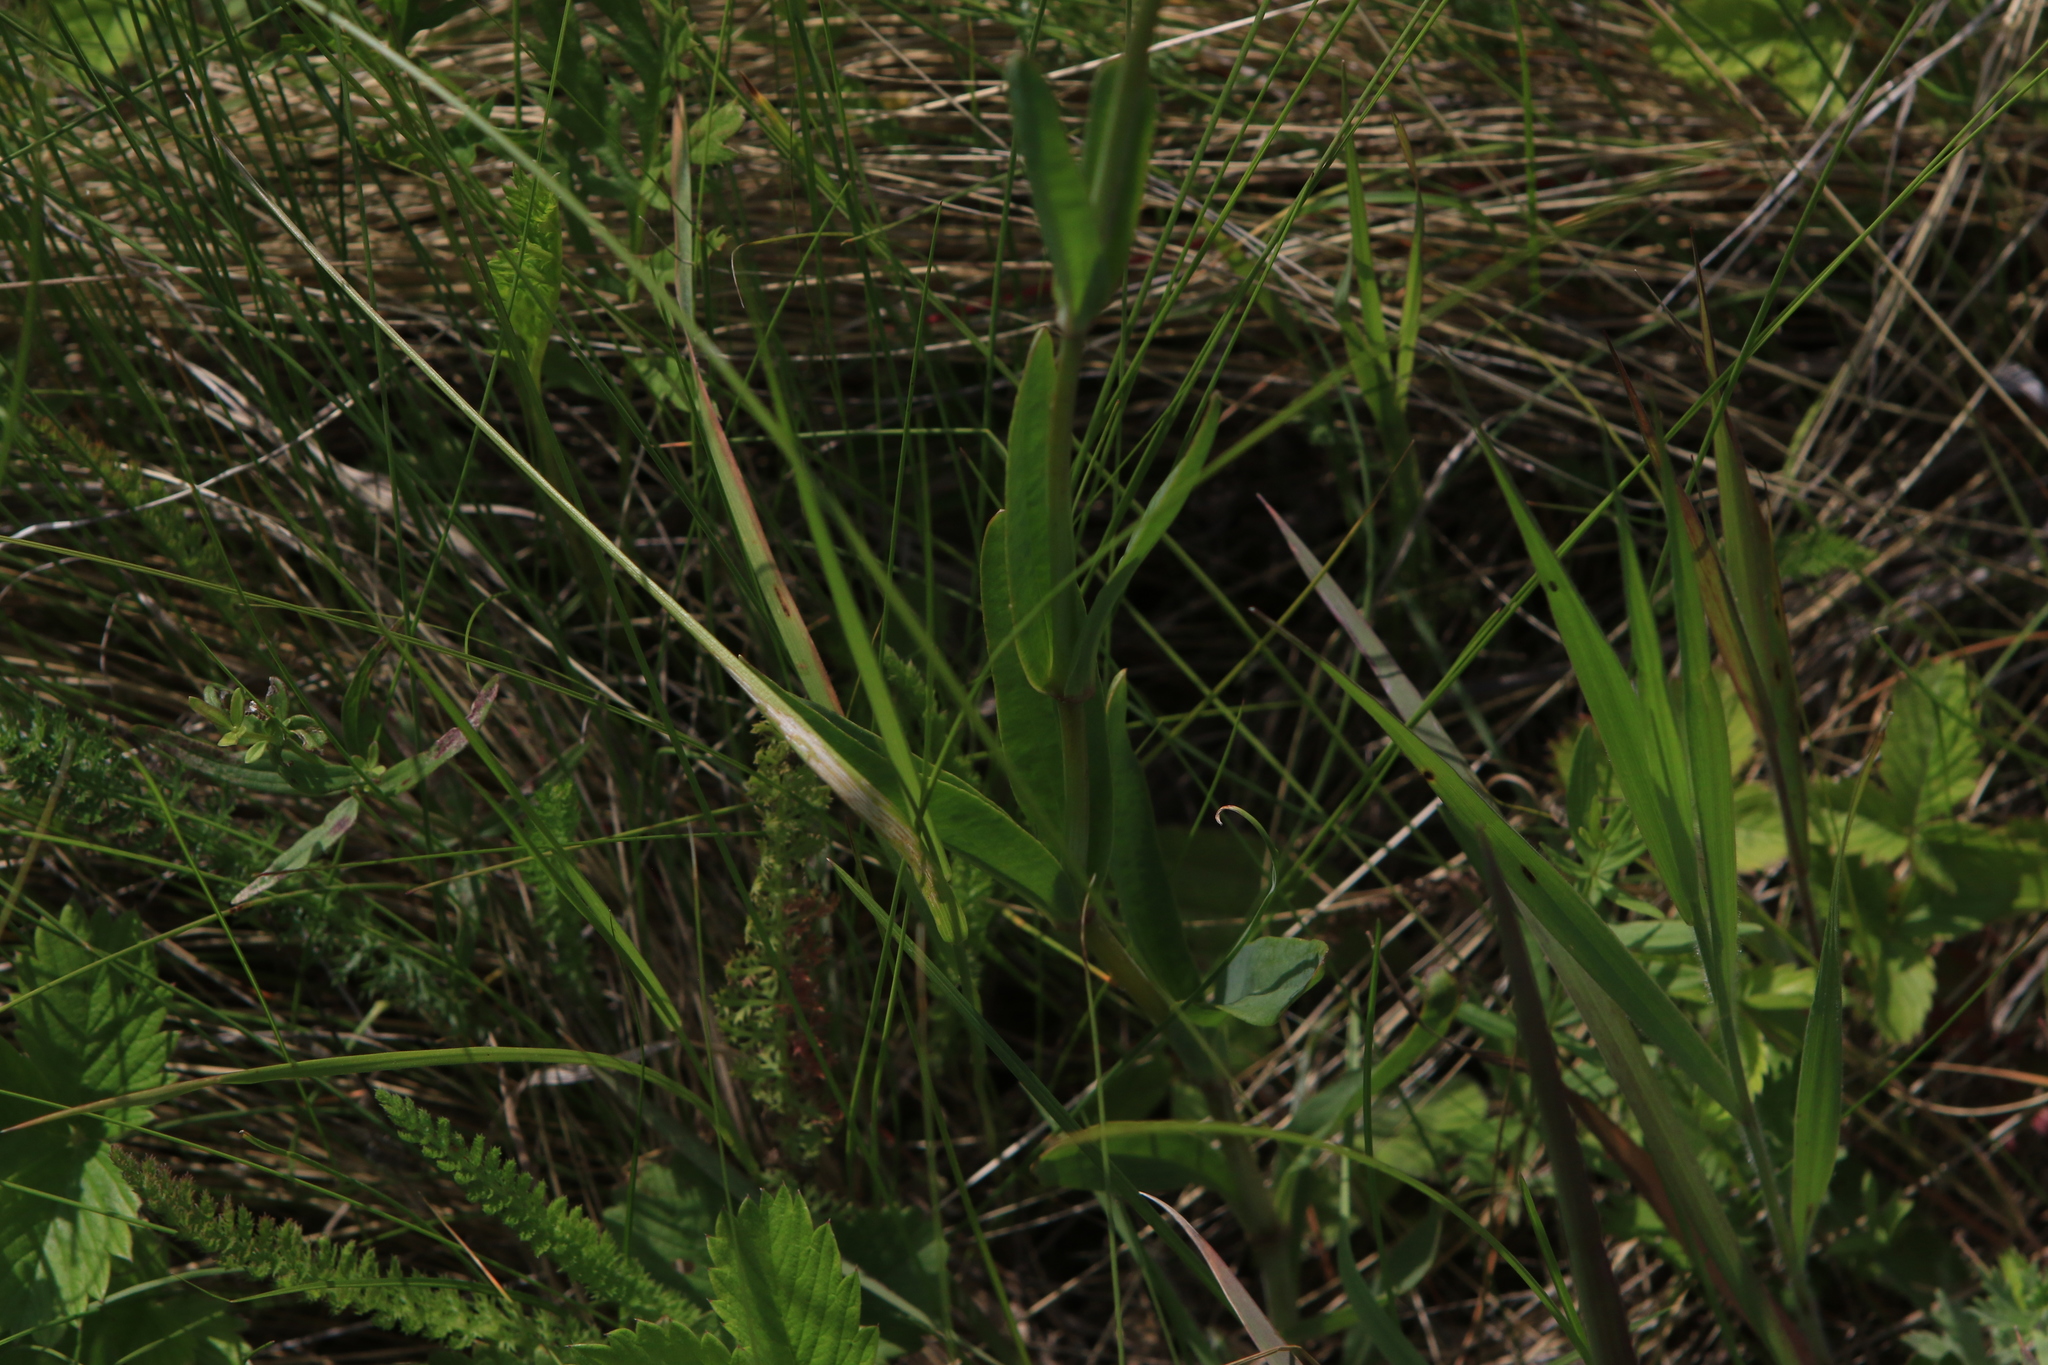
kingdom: Plantae
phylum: Tracheophyta
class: Magnoliopsida
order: Caryophyllales
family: Caryophyllaceae
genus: Gypsophila
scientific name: Gypsophila altissima
